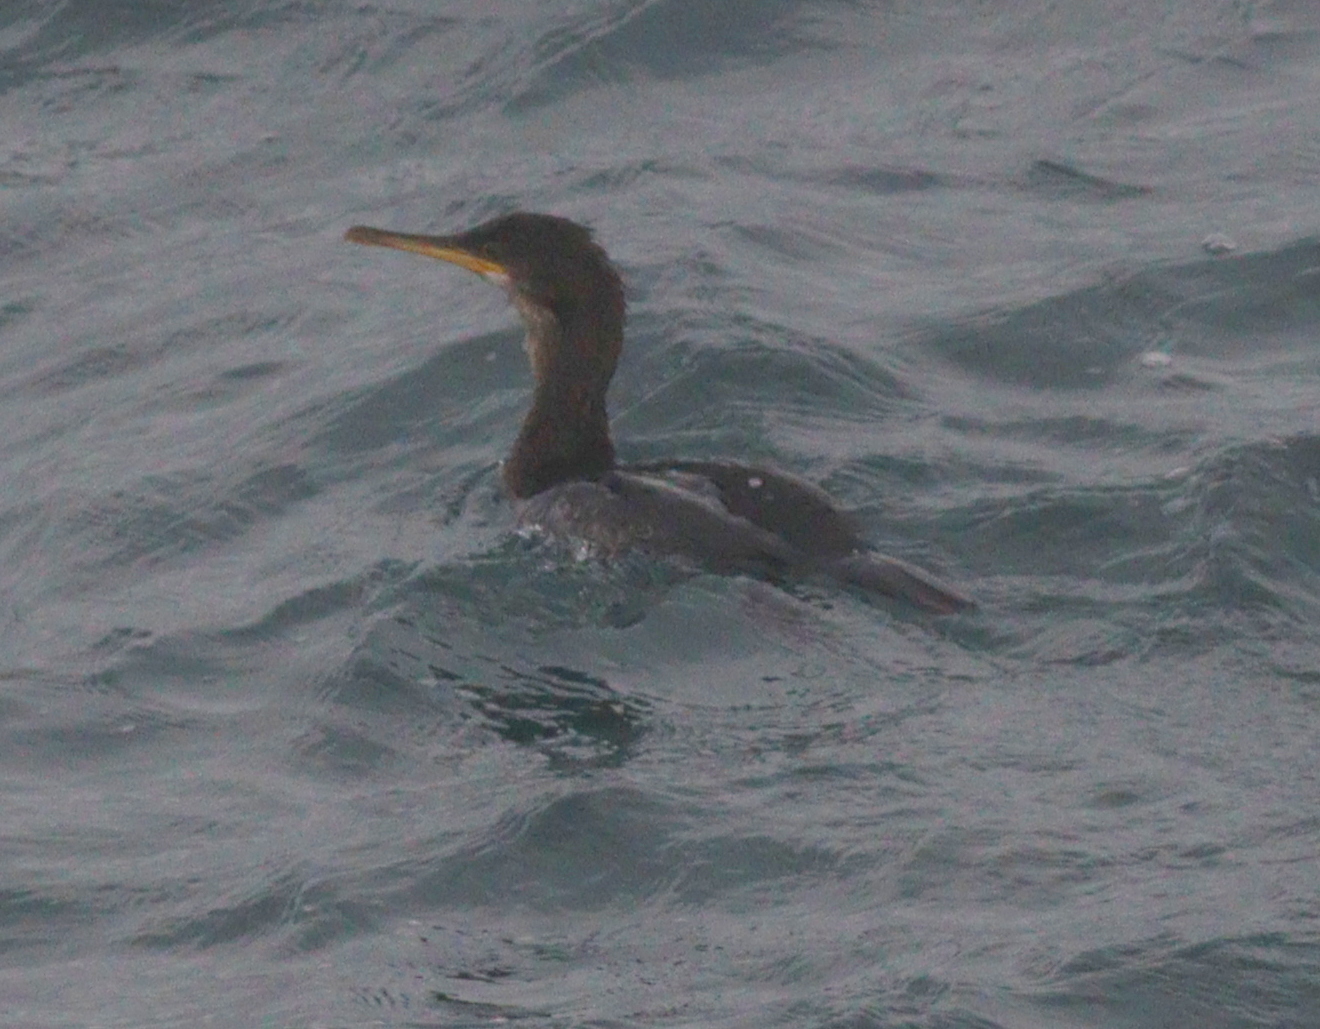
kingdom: Animalia
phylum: Chordata
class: Aves
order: Suliformes
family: Phalacrocoracidae
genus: Phalacrocorax
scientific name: Phalacrocorax aristotelis
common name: European shag
